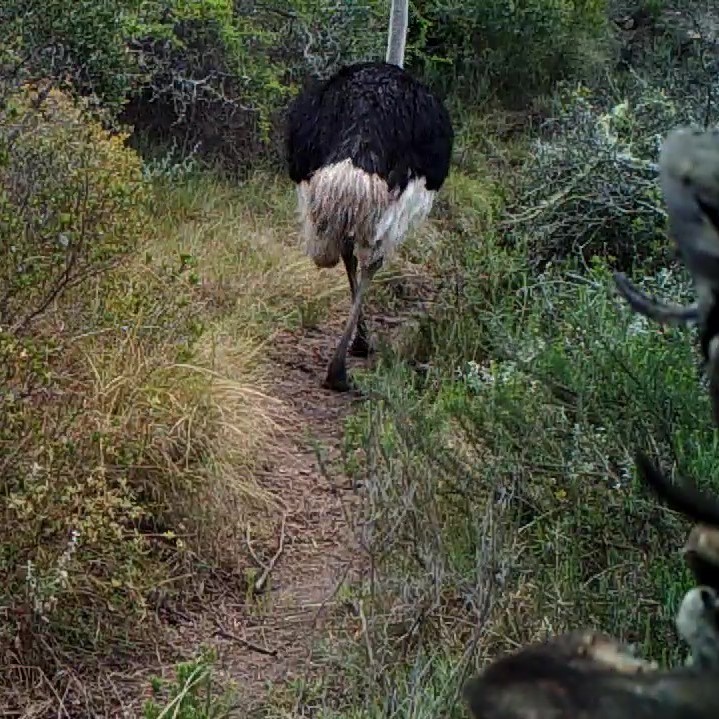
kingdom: Animalia
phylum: Chordata
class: Aves
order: Struthioniformes
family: Struthionidae
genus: Struthio
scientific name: Struthio camelus
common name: Common ostrich
